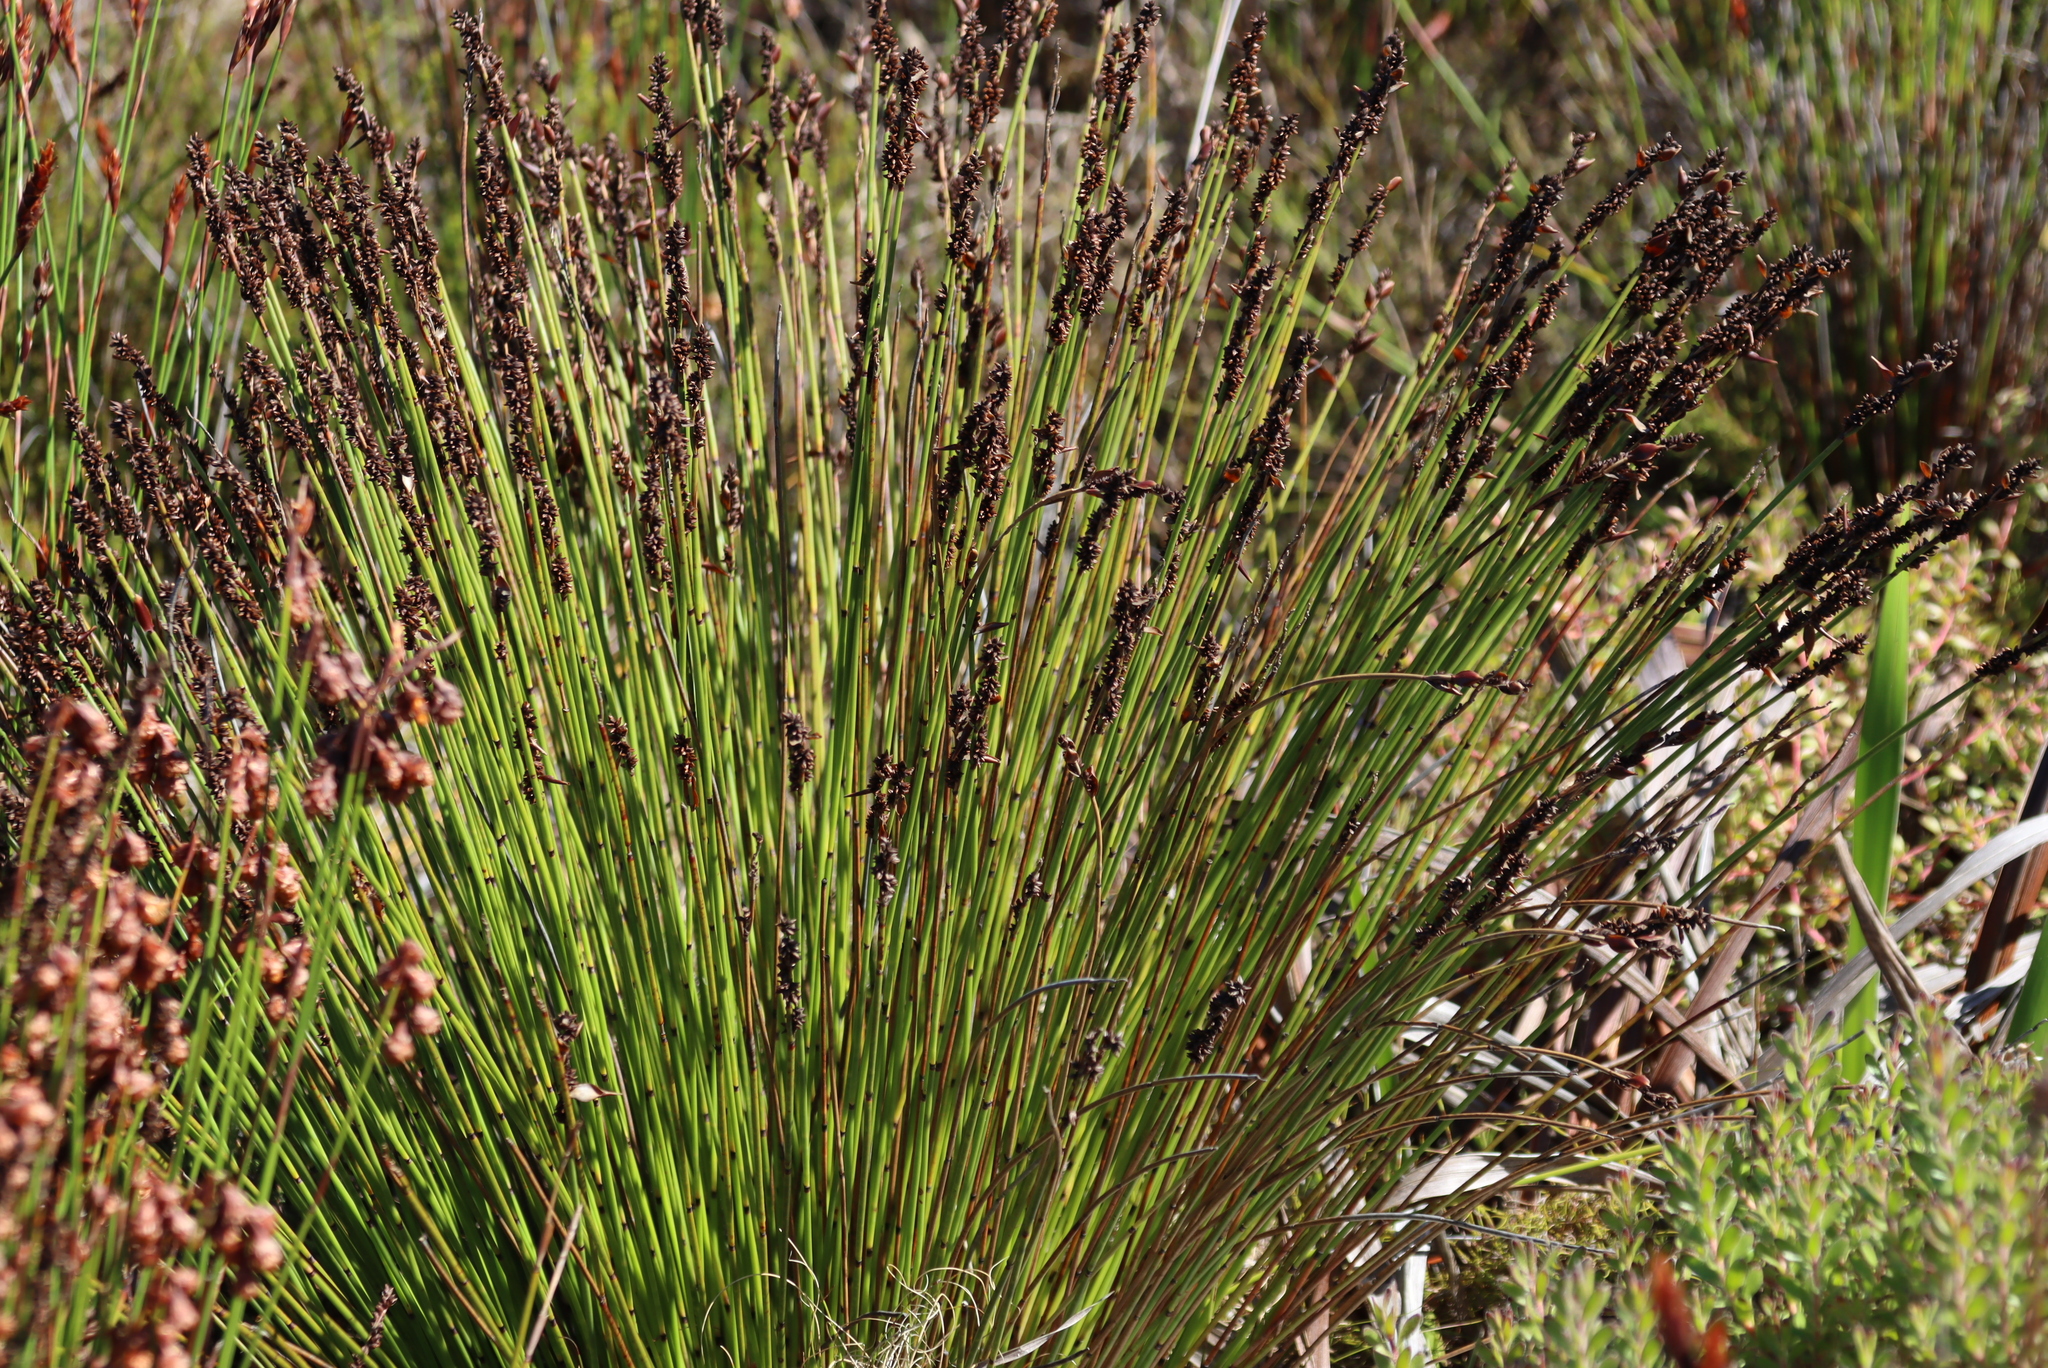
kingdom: Plantae
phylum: Tracheophyta
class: Liliopsida
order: Poales
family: Restionaceae
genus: Elegia
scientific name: Elegia tectorum
